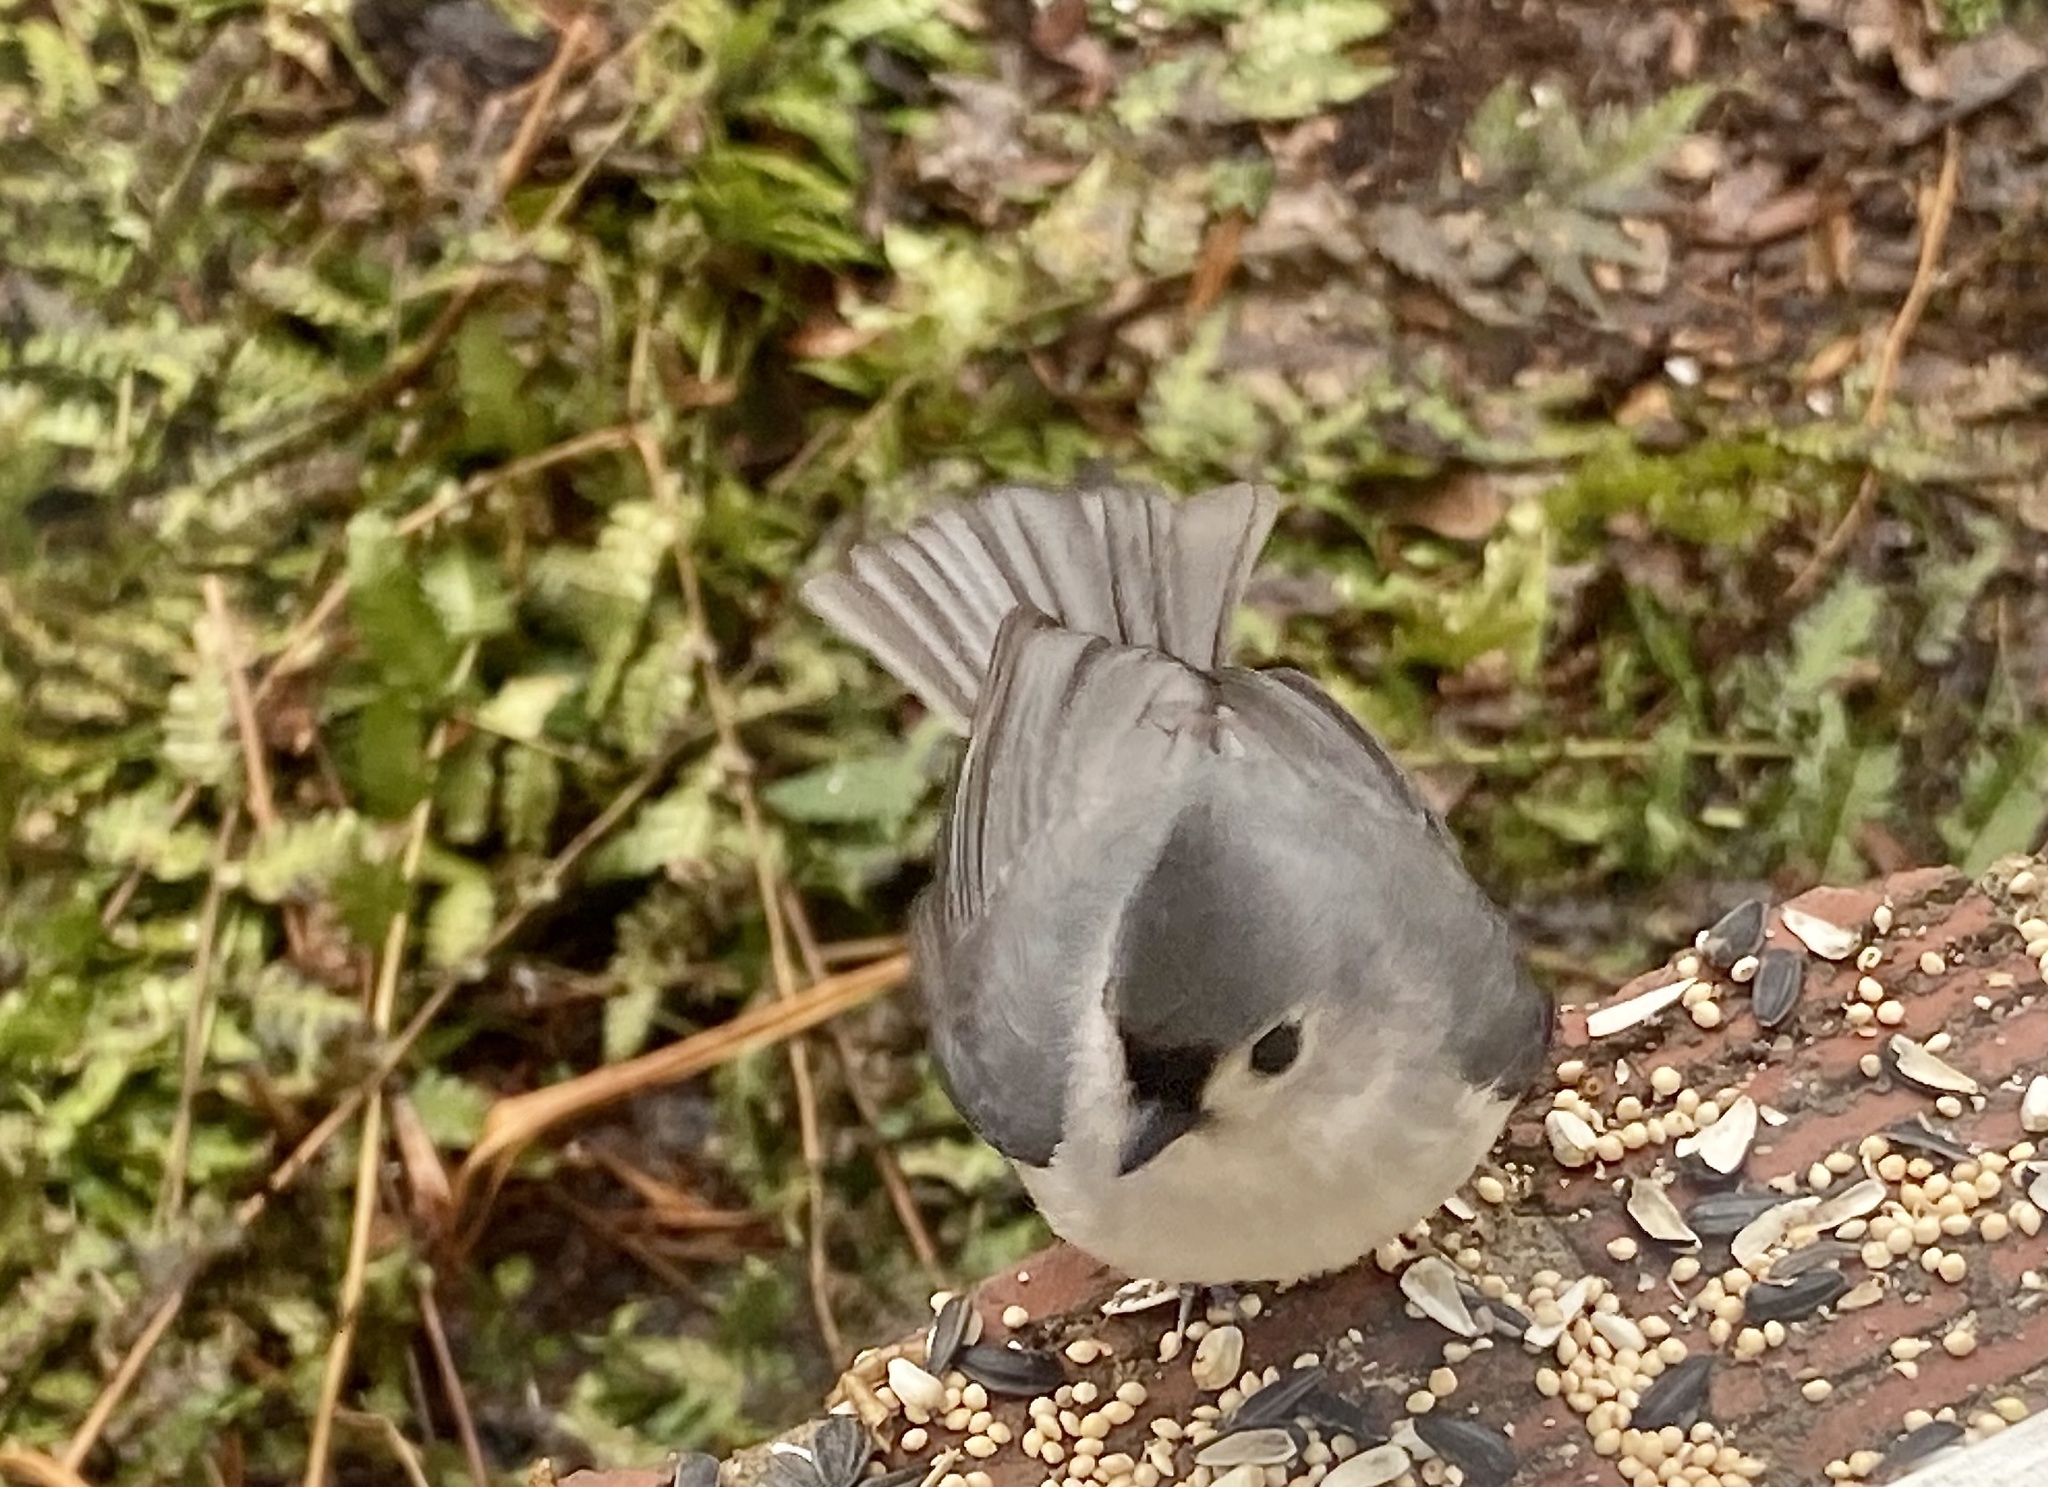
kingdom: Animalia
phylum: Chordata
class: Aves
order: Passeriformes
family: Paridae
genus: Baeolophus
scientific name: Baeolophus bicolor
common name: Tufted titmouse
